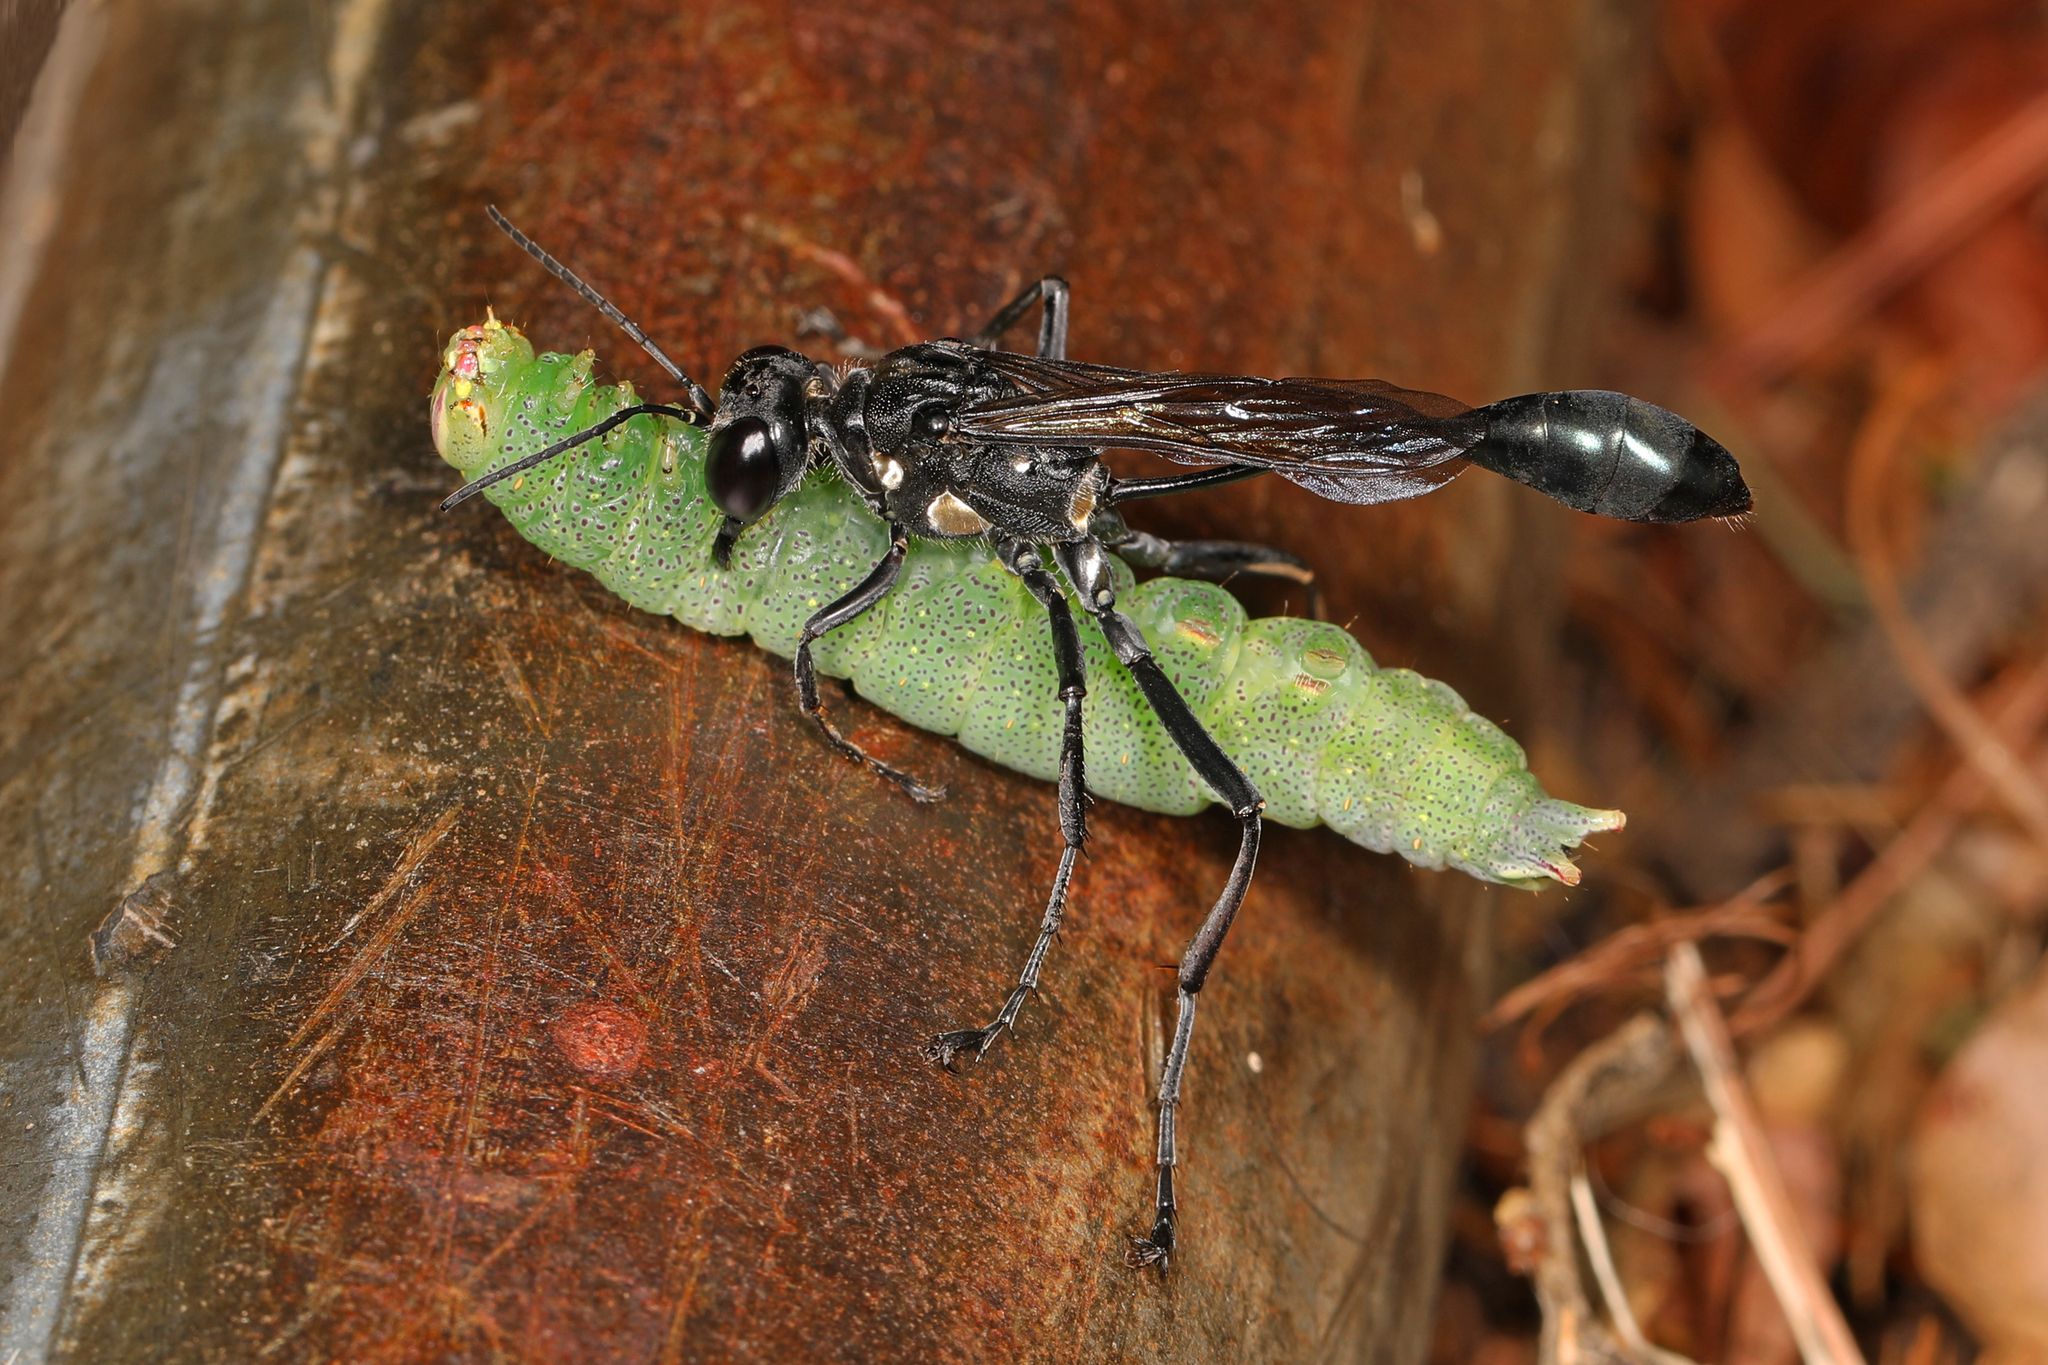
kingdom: Animalia
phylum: Arthropoda
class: Insecta
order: Hymenoptera
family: Sphecidae
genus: Eremnophila
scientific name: Eremnophila aureonotata
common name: Gold-marked thread-waisted wasp
